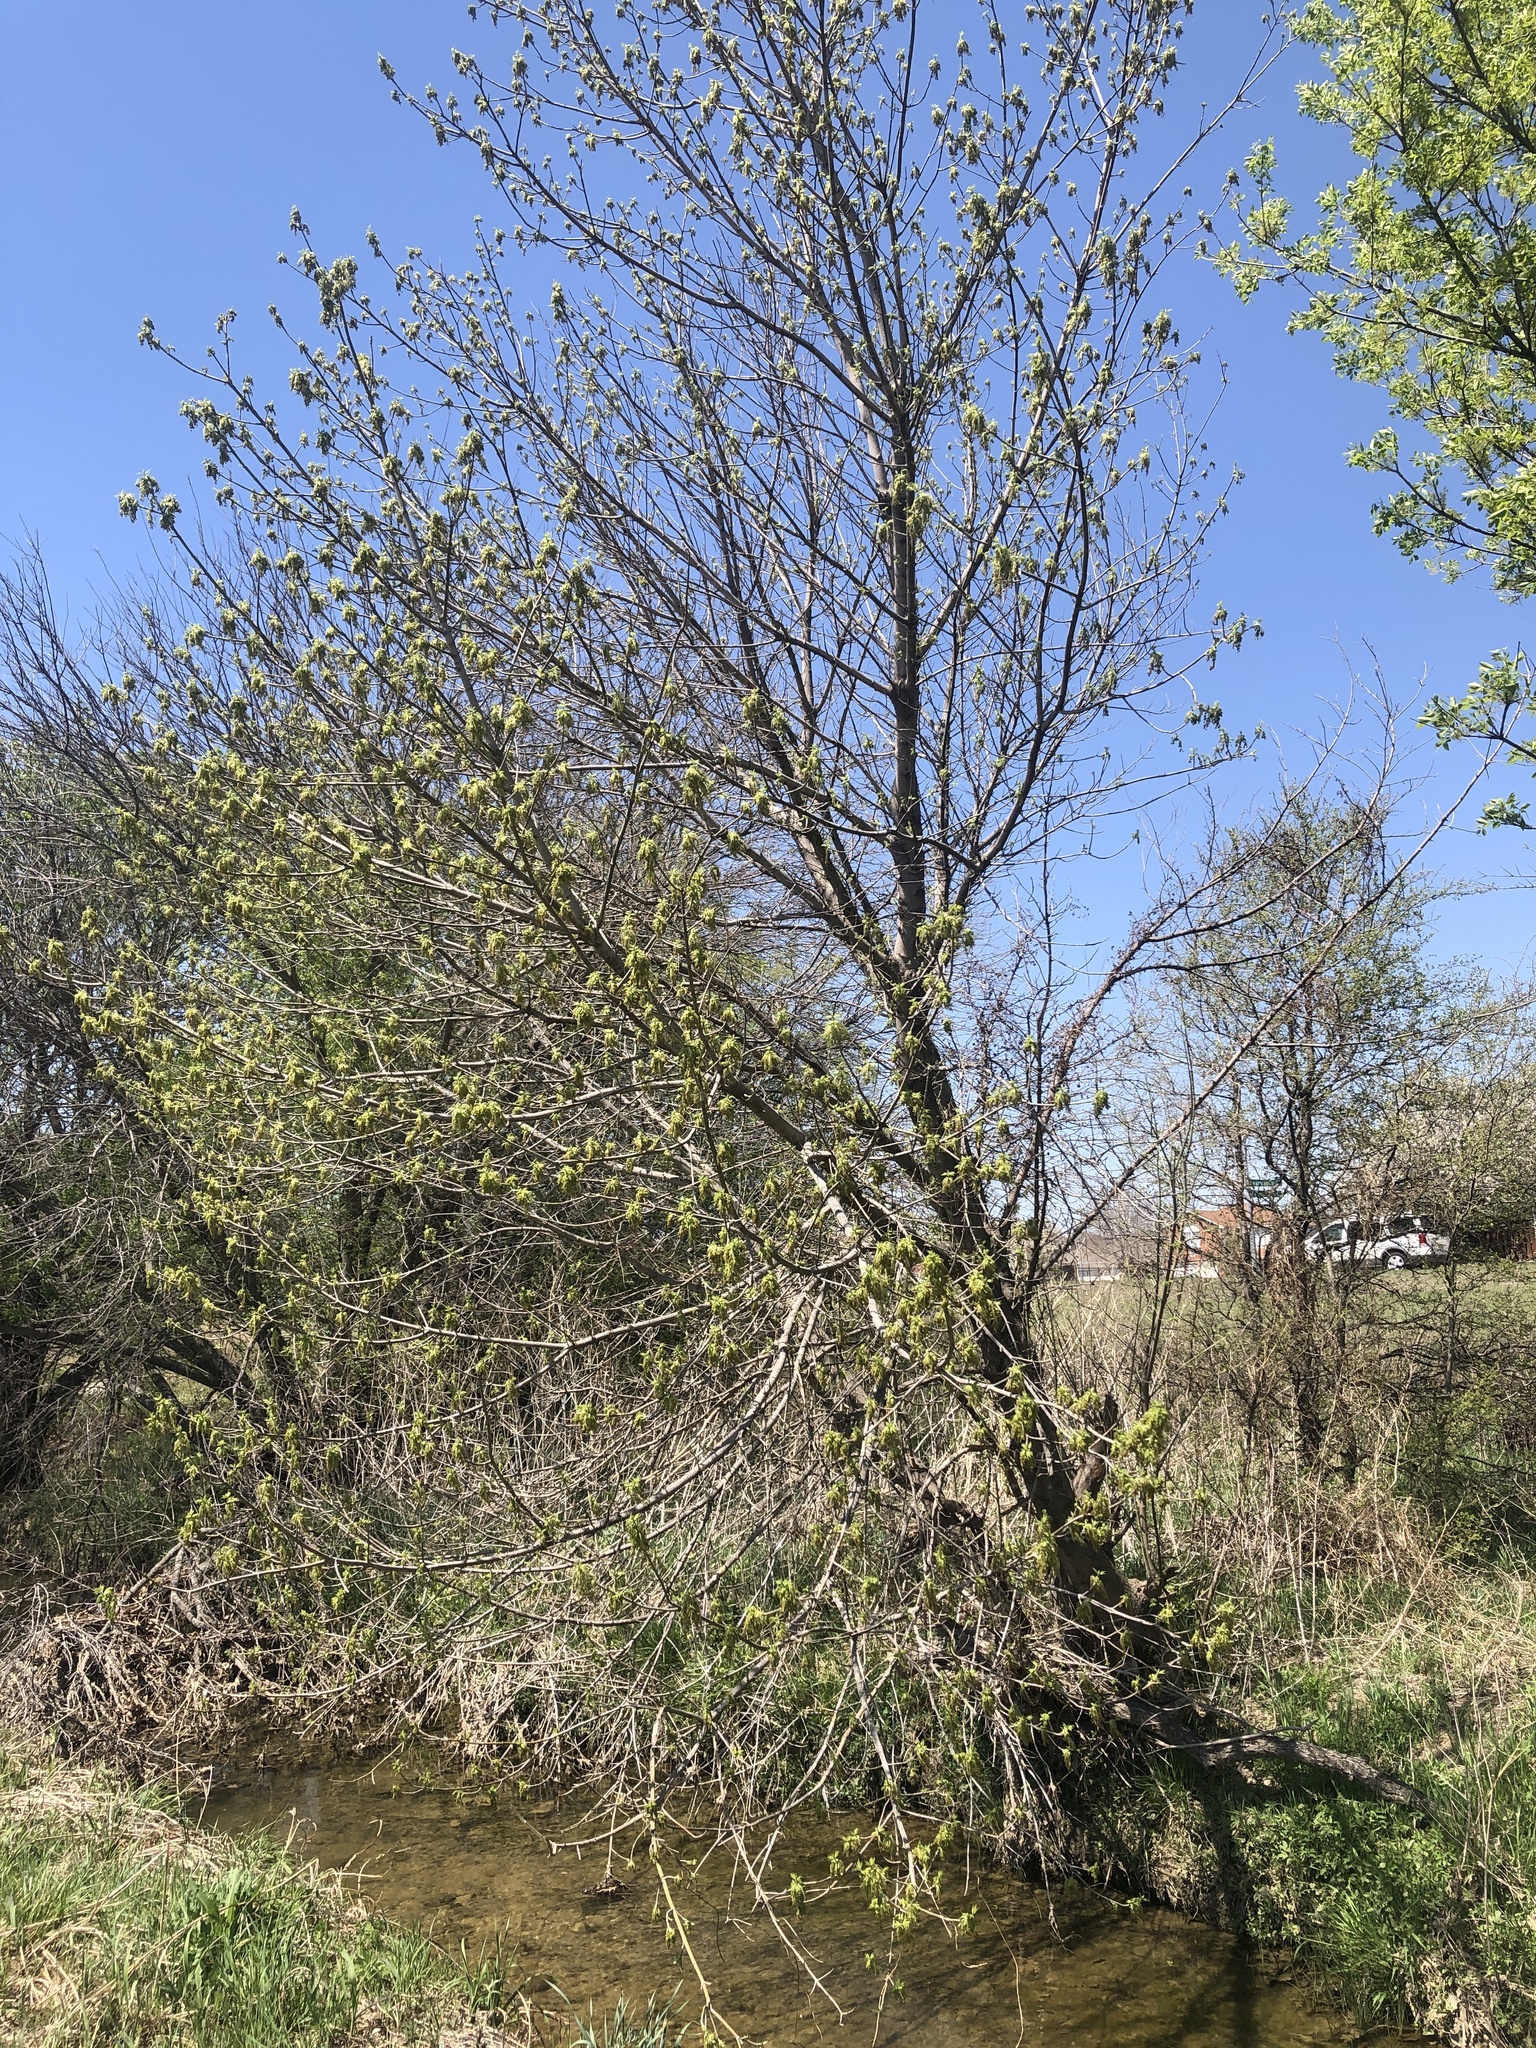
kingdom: Plantae
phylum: Tracheophyta
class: Magnoliopsida
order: Sapindales
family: Sapindaceae
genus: Acer
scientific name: Acer negundo
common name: Ashleaf maple
